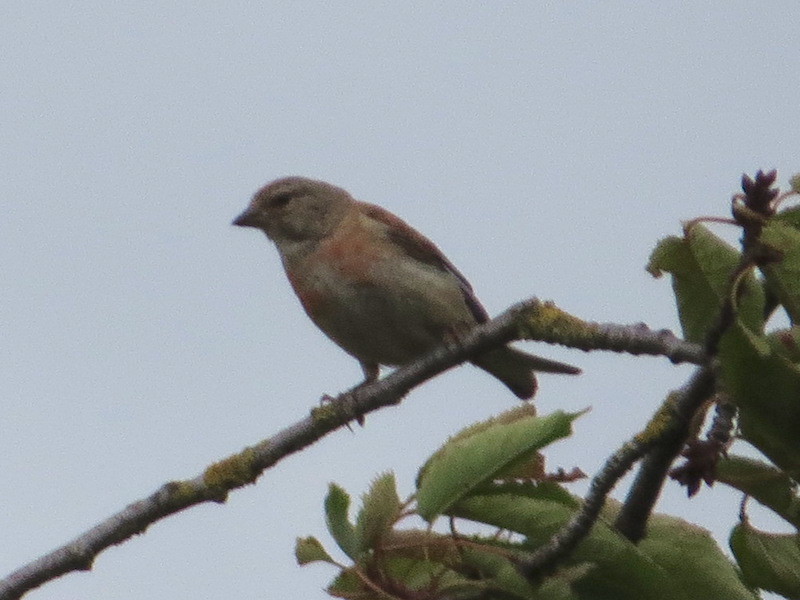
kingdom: Animalia
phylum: Chordata
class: Aves
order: Passeriformes
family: Fringillidae
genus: Linaria
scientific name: Linaria cannabina
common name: Common linnet
